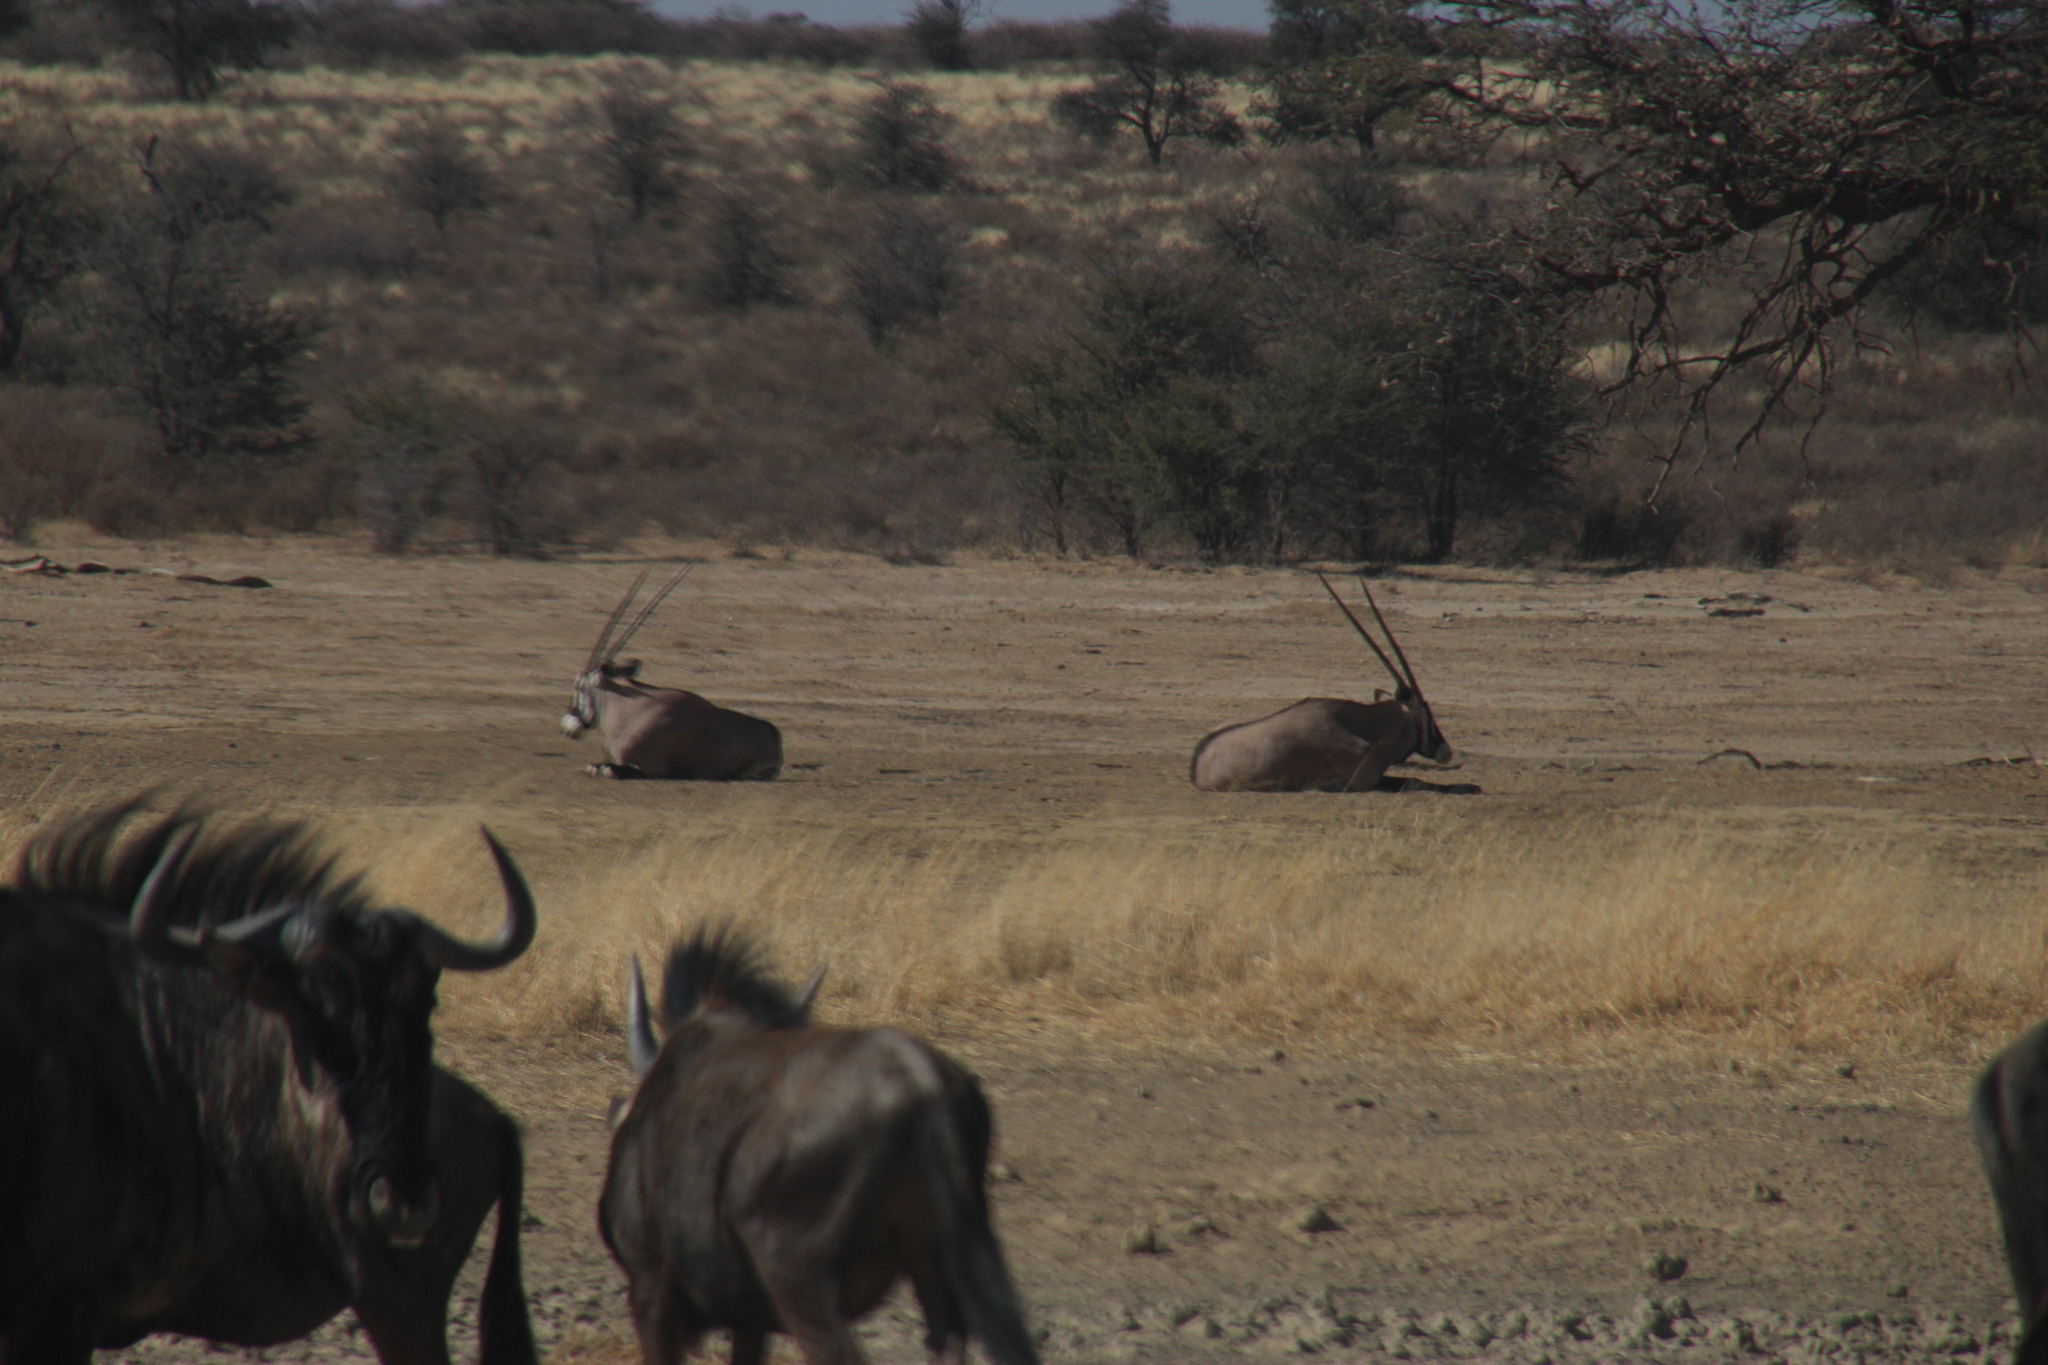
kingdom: Animalia
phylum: Chordata
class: Mammalia
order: Artiodactyla
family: Bovidae
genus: Oryx
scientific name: Oryx gazella
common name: Gemsbok
